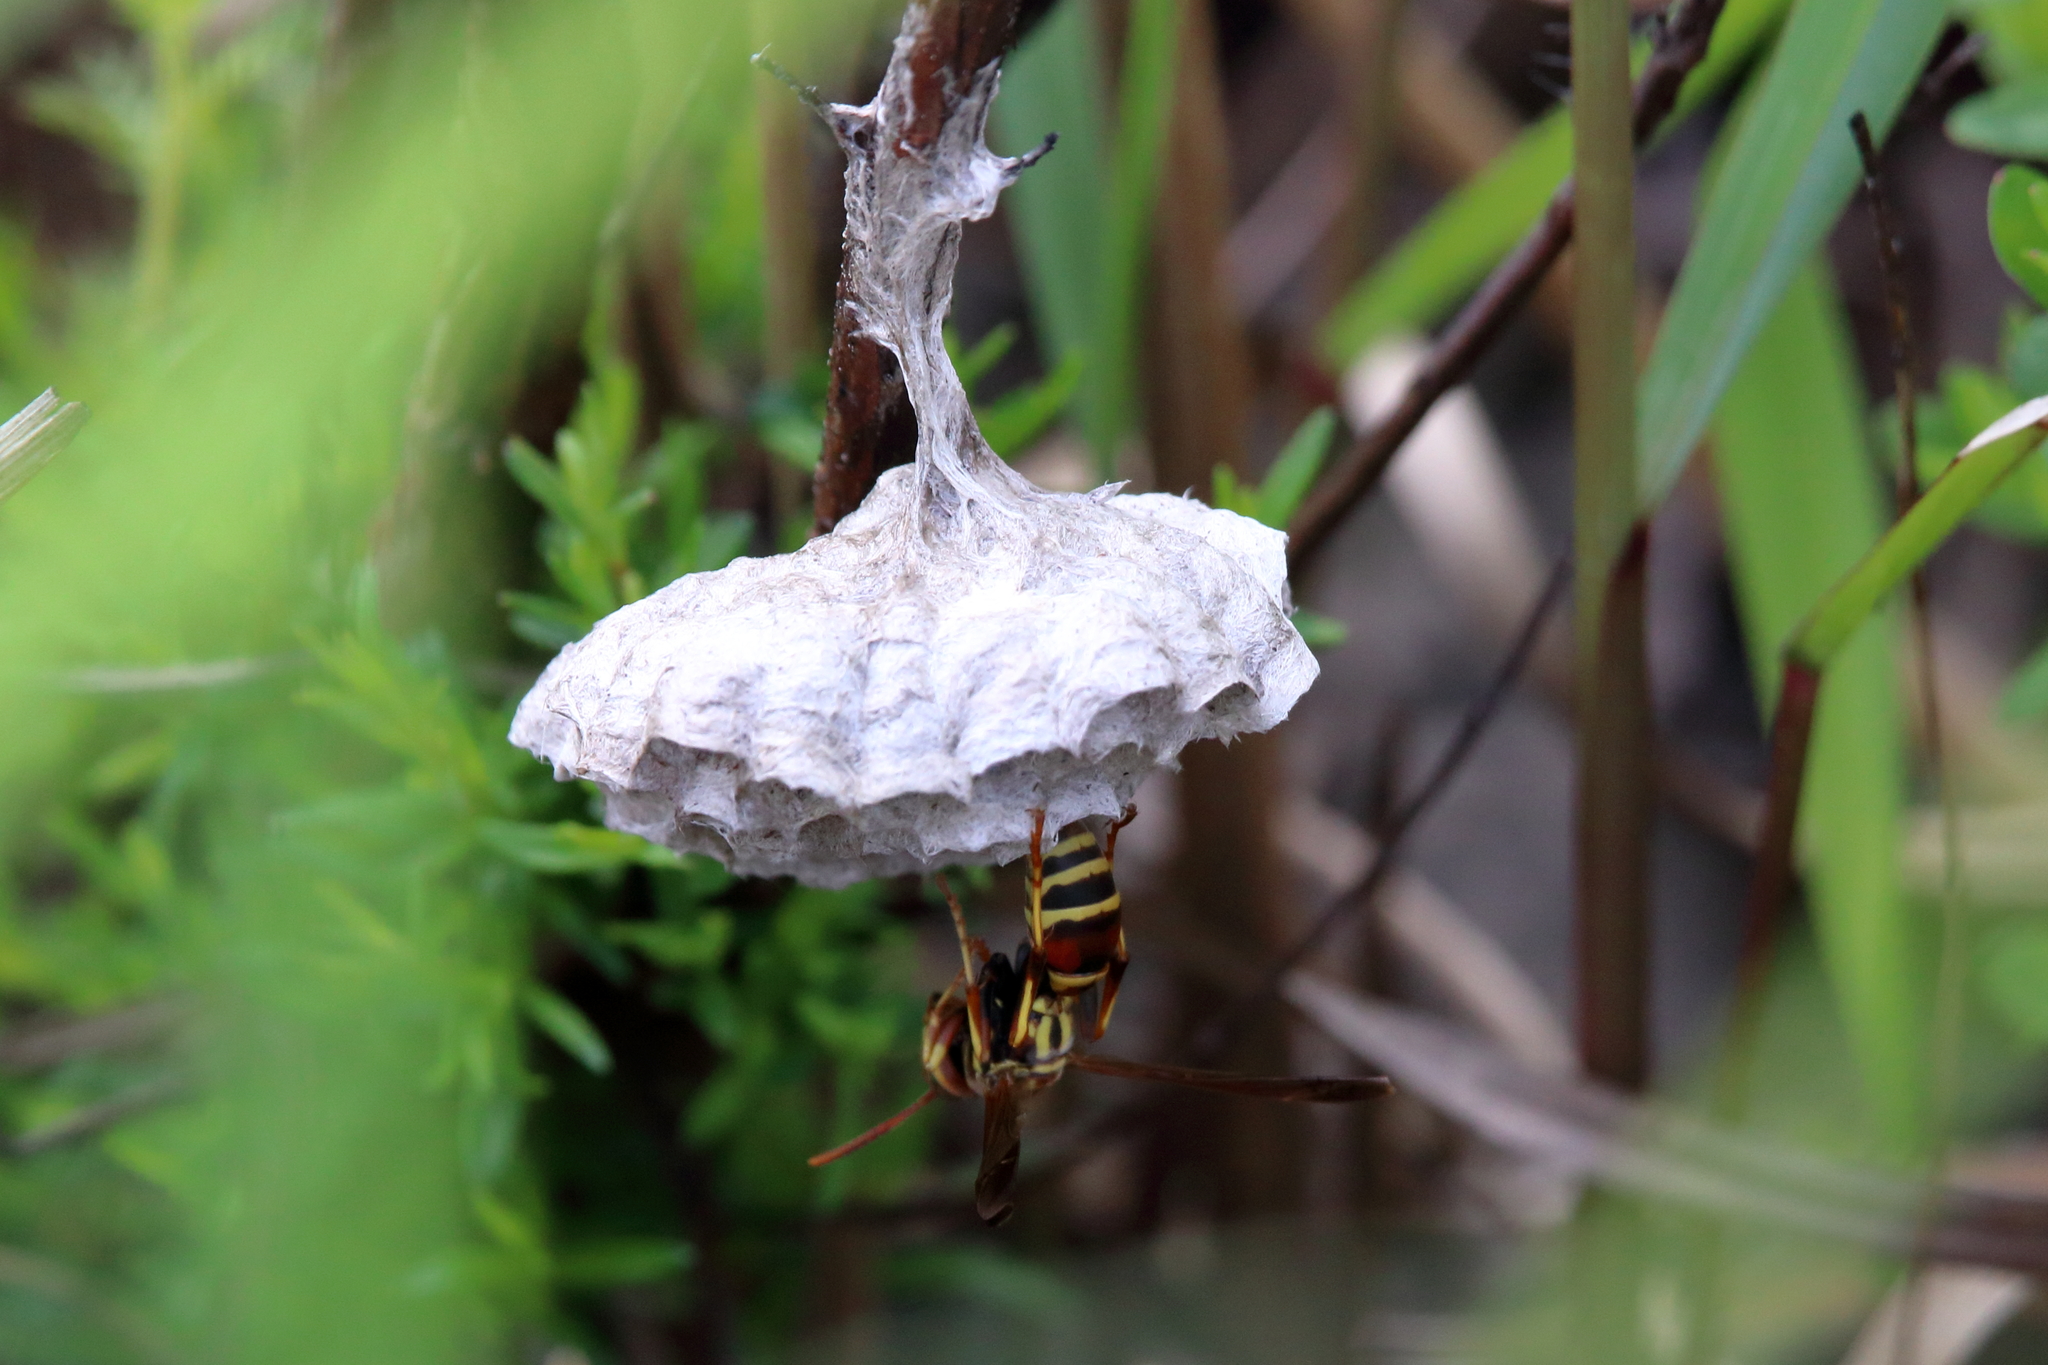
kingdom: Animalia
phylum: Arthropoda
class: Insecta
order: Hymenoptera
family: Eumenidae
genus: Polistes
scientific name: Polistes dorsalis
